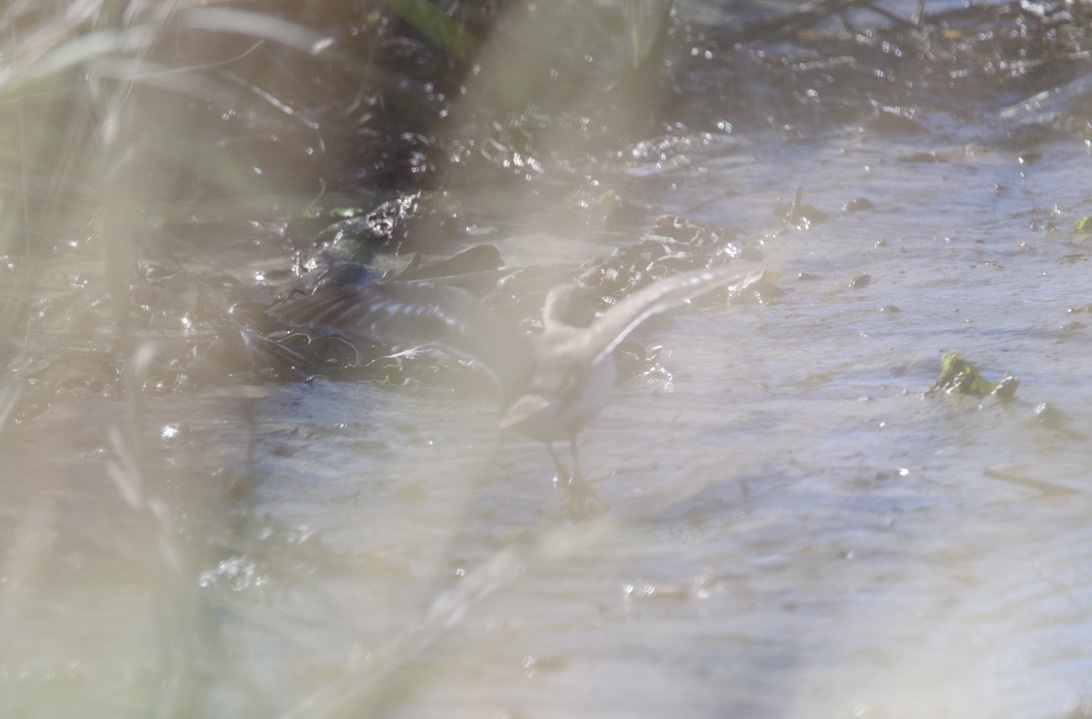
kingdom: Animalia
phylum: Chordata
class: Aves
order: Charadriiformes
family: Scolopacidae
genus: Actitis
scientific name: Actitis macularius
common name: Spotted sandpiper
